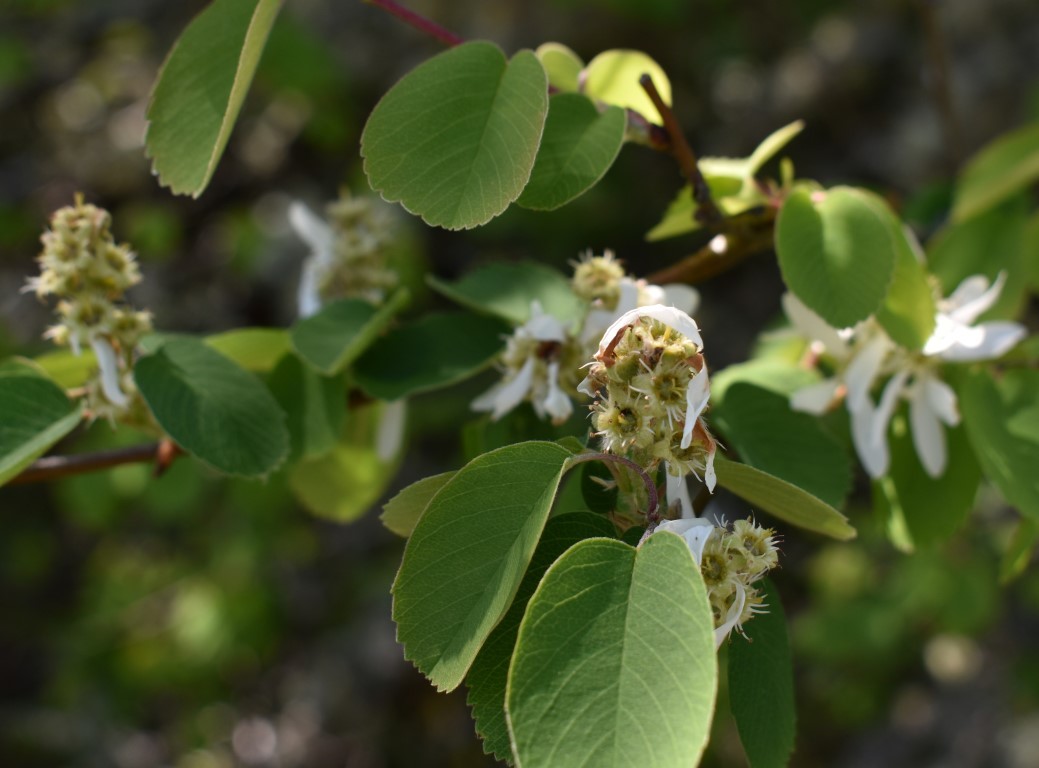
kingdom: Plantae
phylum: Tracheophyta
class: Magnoliopsida
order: Rosales
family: Rosaceae
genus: Amelanchier
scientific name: Amelanchier alnifolia
